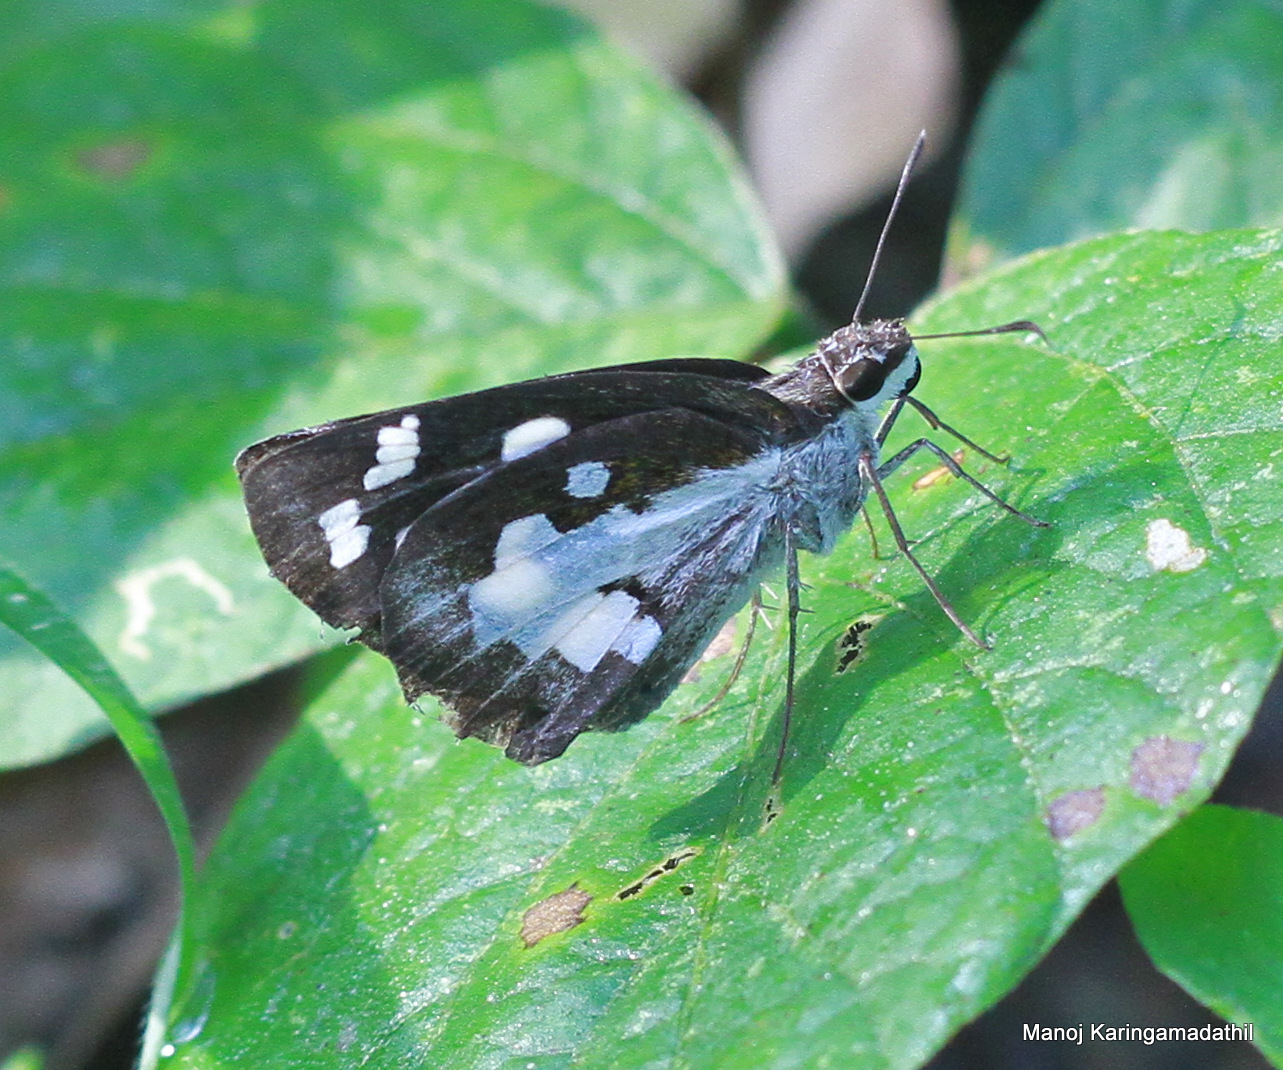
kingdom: Animalia
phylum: Arthropoda
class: Insecta
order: Lepidoptera
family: Hesperiidae
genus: Udaspes
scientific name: Udaspes folus
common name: Grass demon
